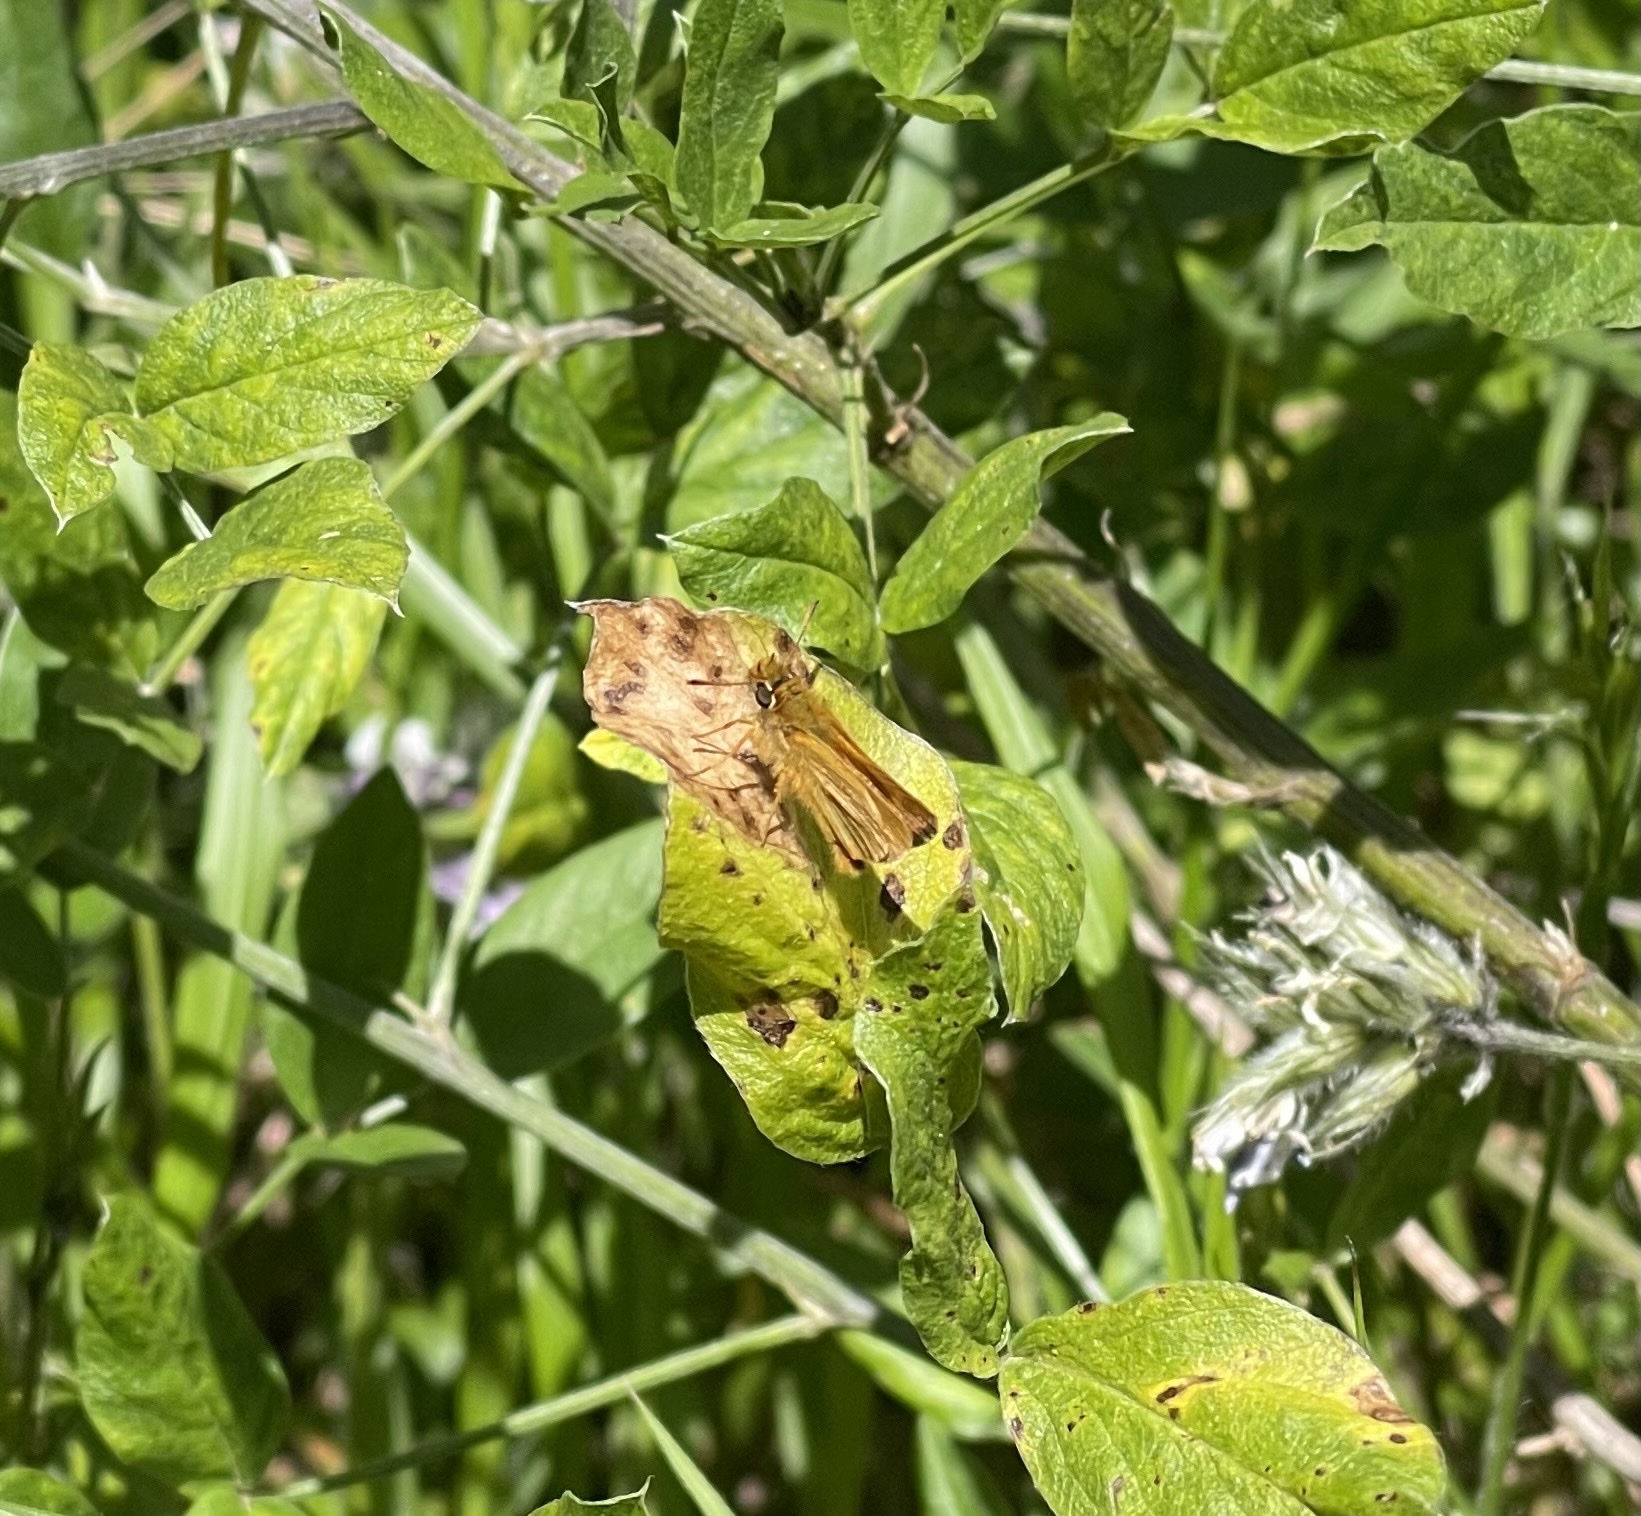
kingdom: Animalia
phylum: Arthropoda
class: Insecta
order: Lepidoptera
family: Hesperiidae
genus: Thymelicus
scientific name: Thymelicus acteon
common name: Lulworth skipper
